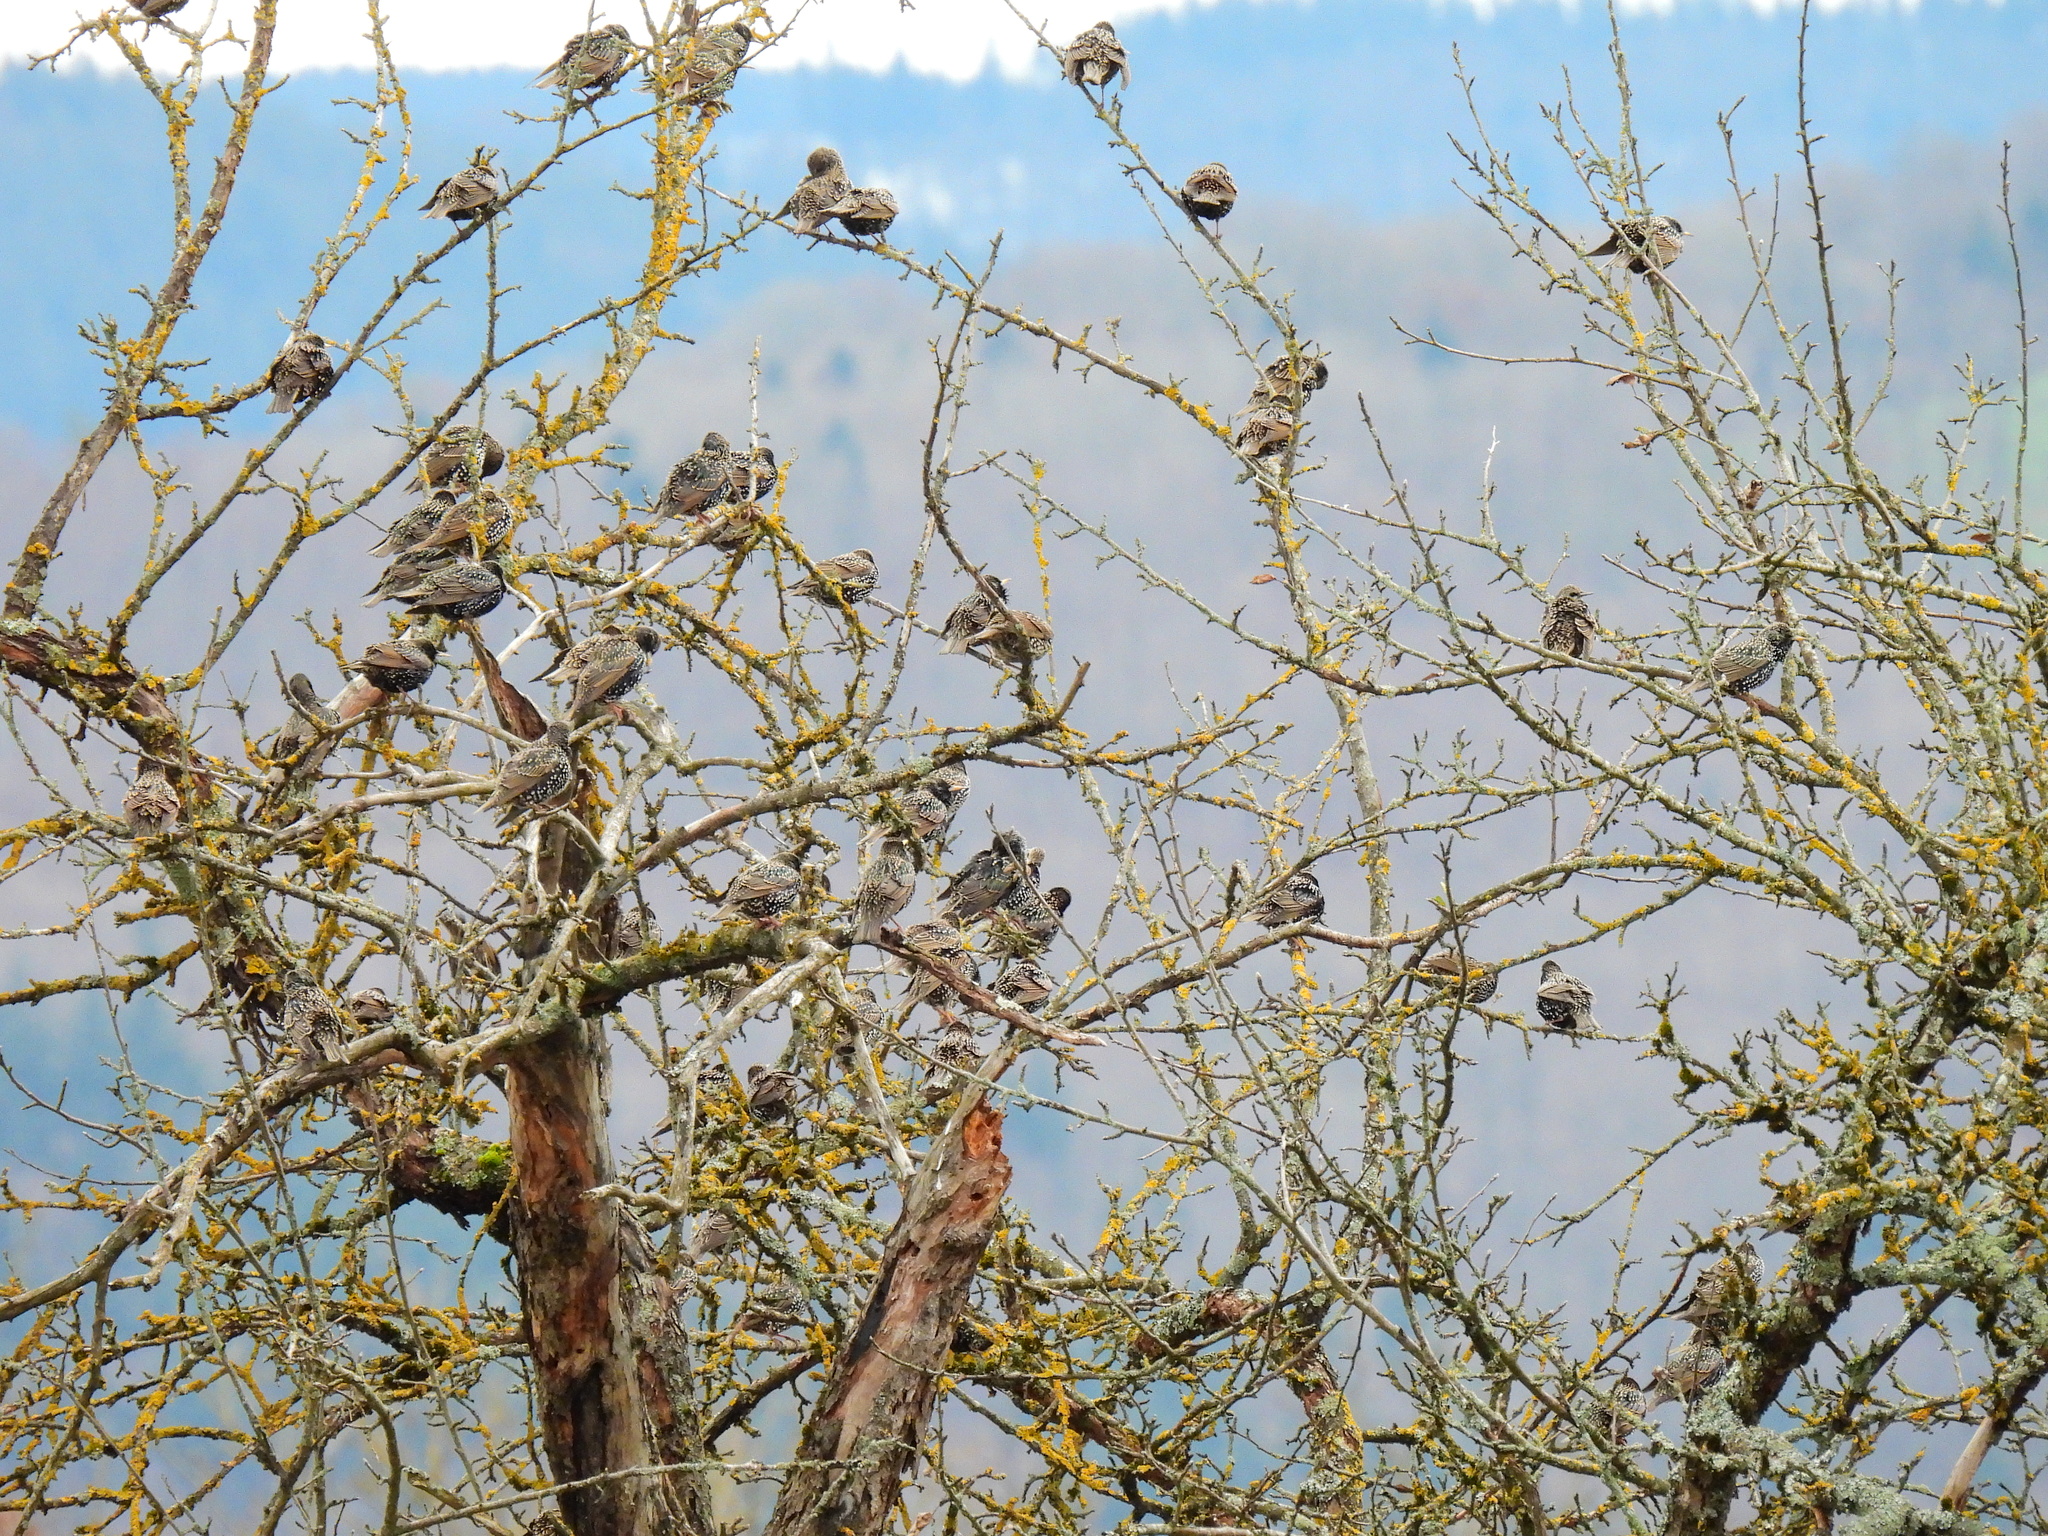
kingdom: Animalia
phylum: Chordata
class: Aves
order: Passeriformes
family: Sturnidae
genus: Sturnus
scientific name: Sturnus vulgaris
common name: Common starling
